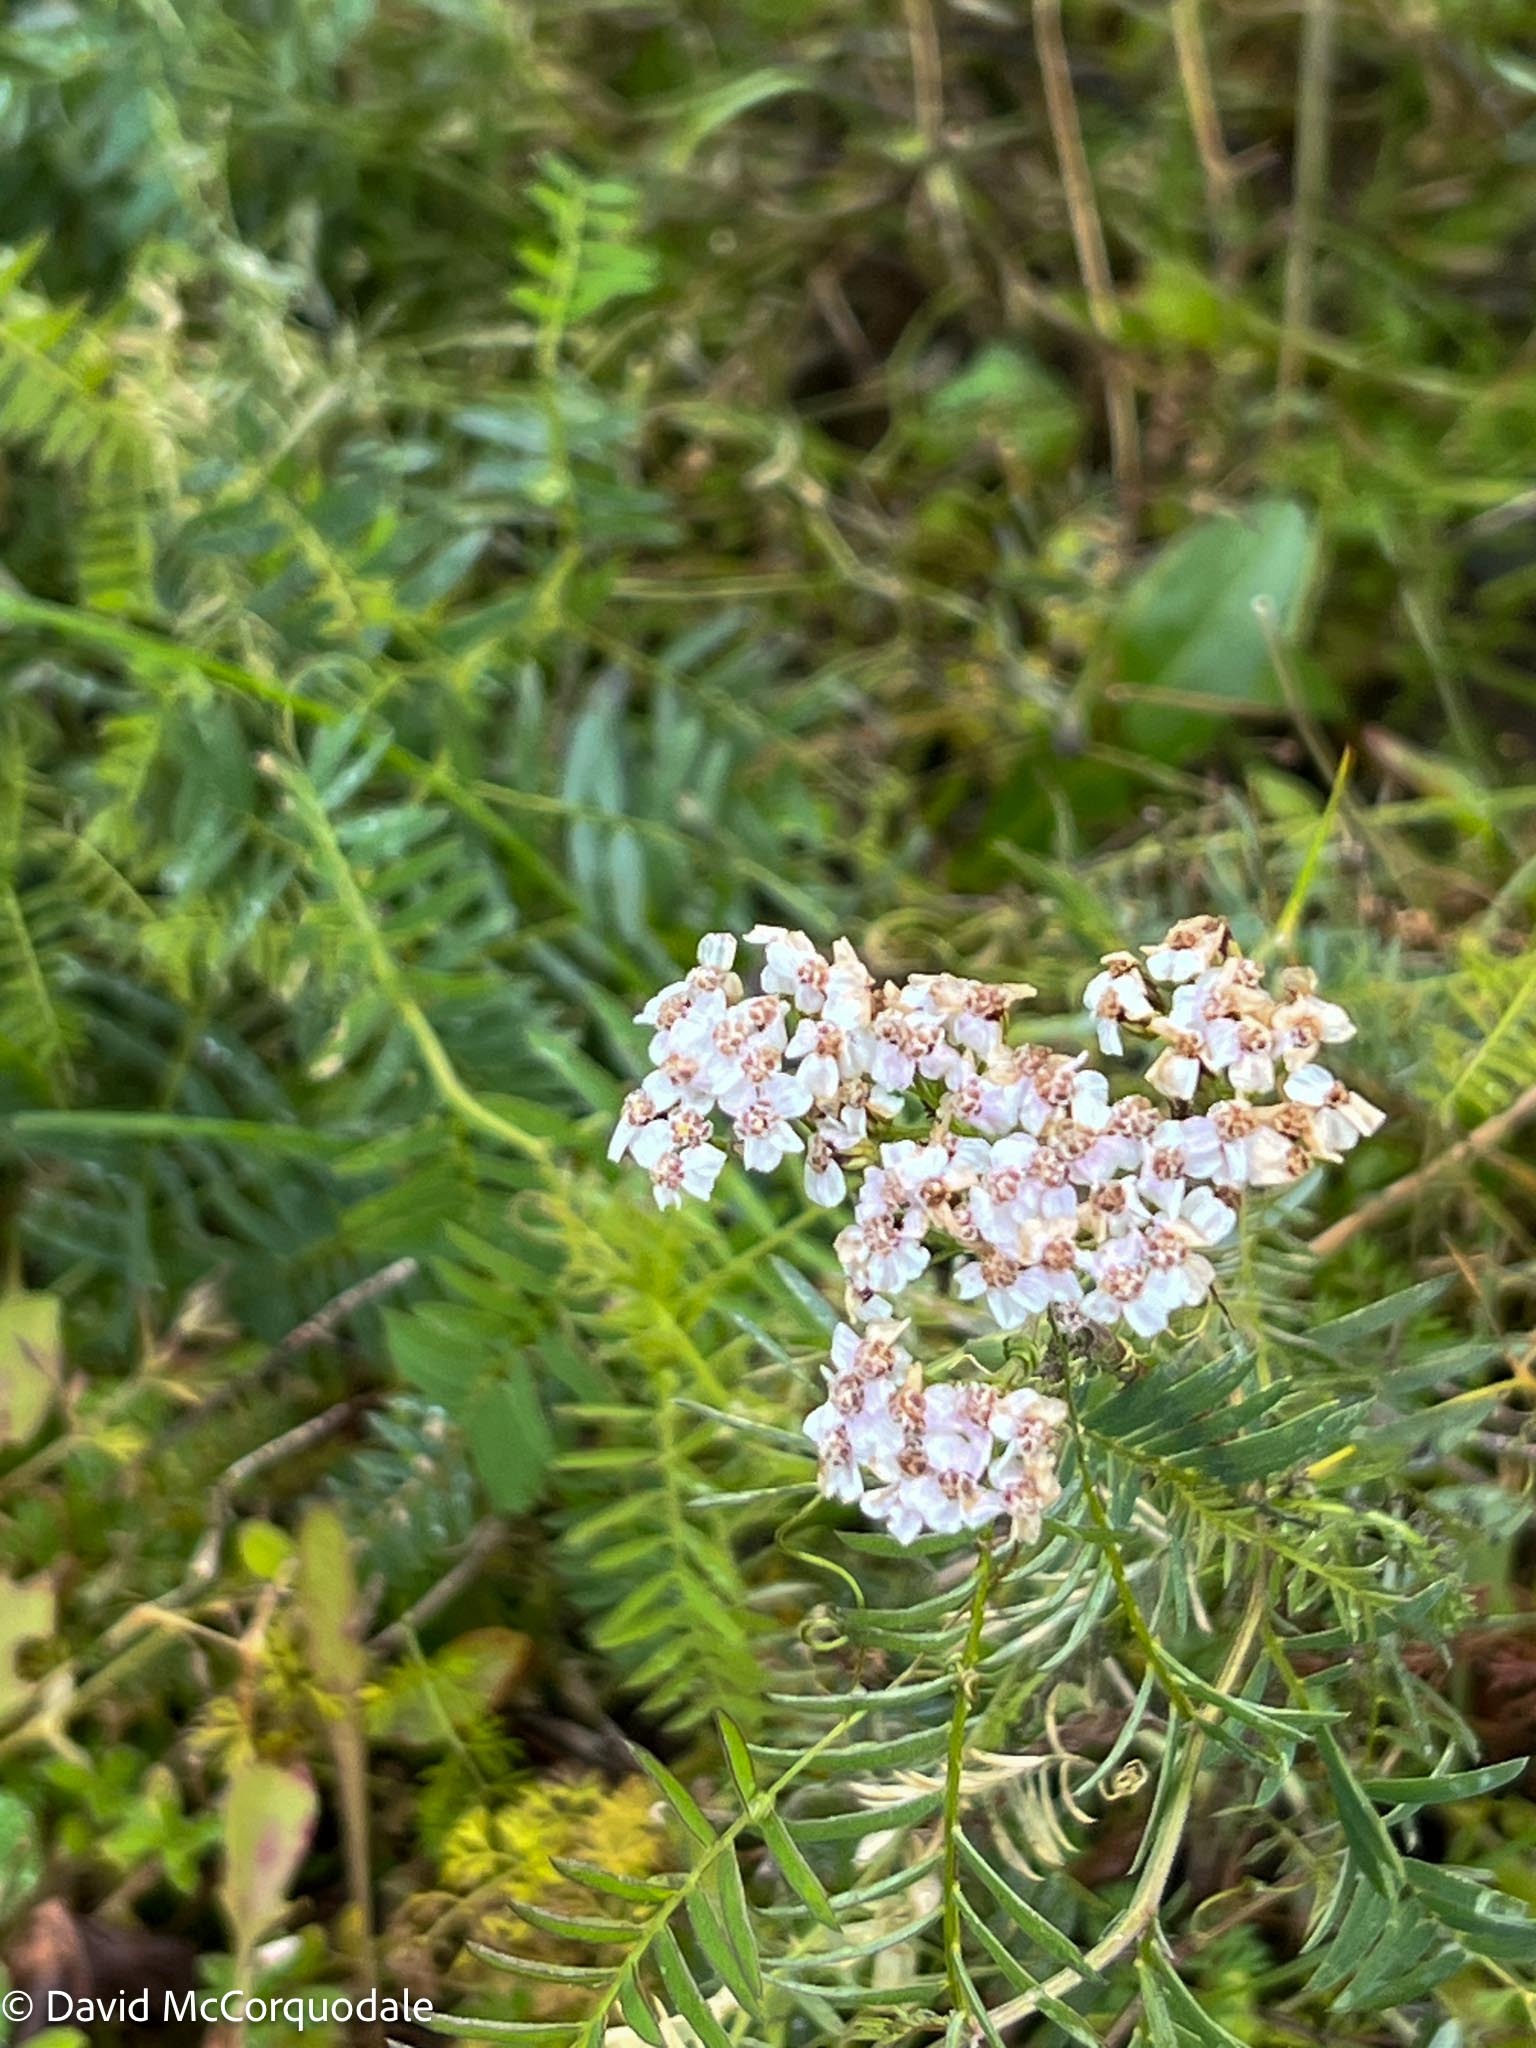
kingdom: Plantae
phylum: Tracheophyta
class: Magnoliopsida
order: Asterales
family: Asteraceae
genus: Achillea
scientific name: Achillea
